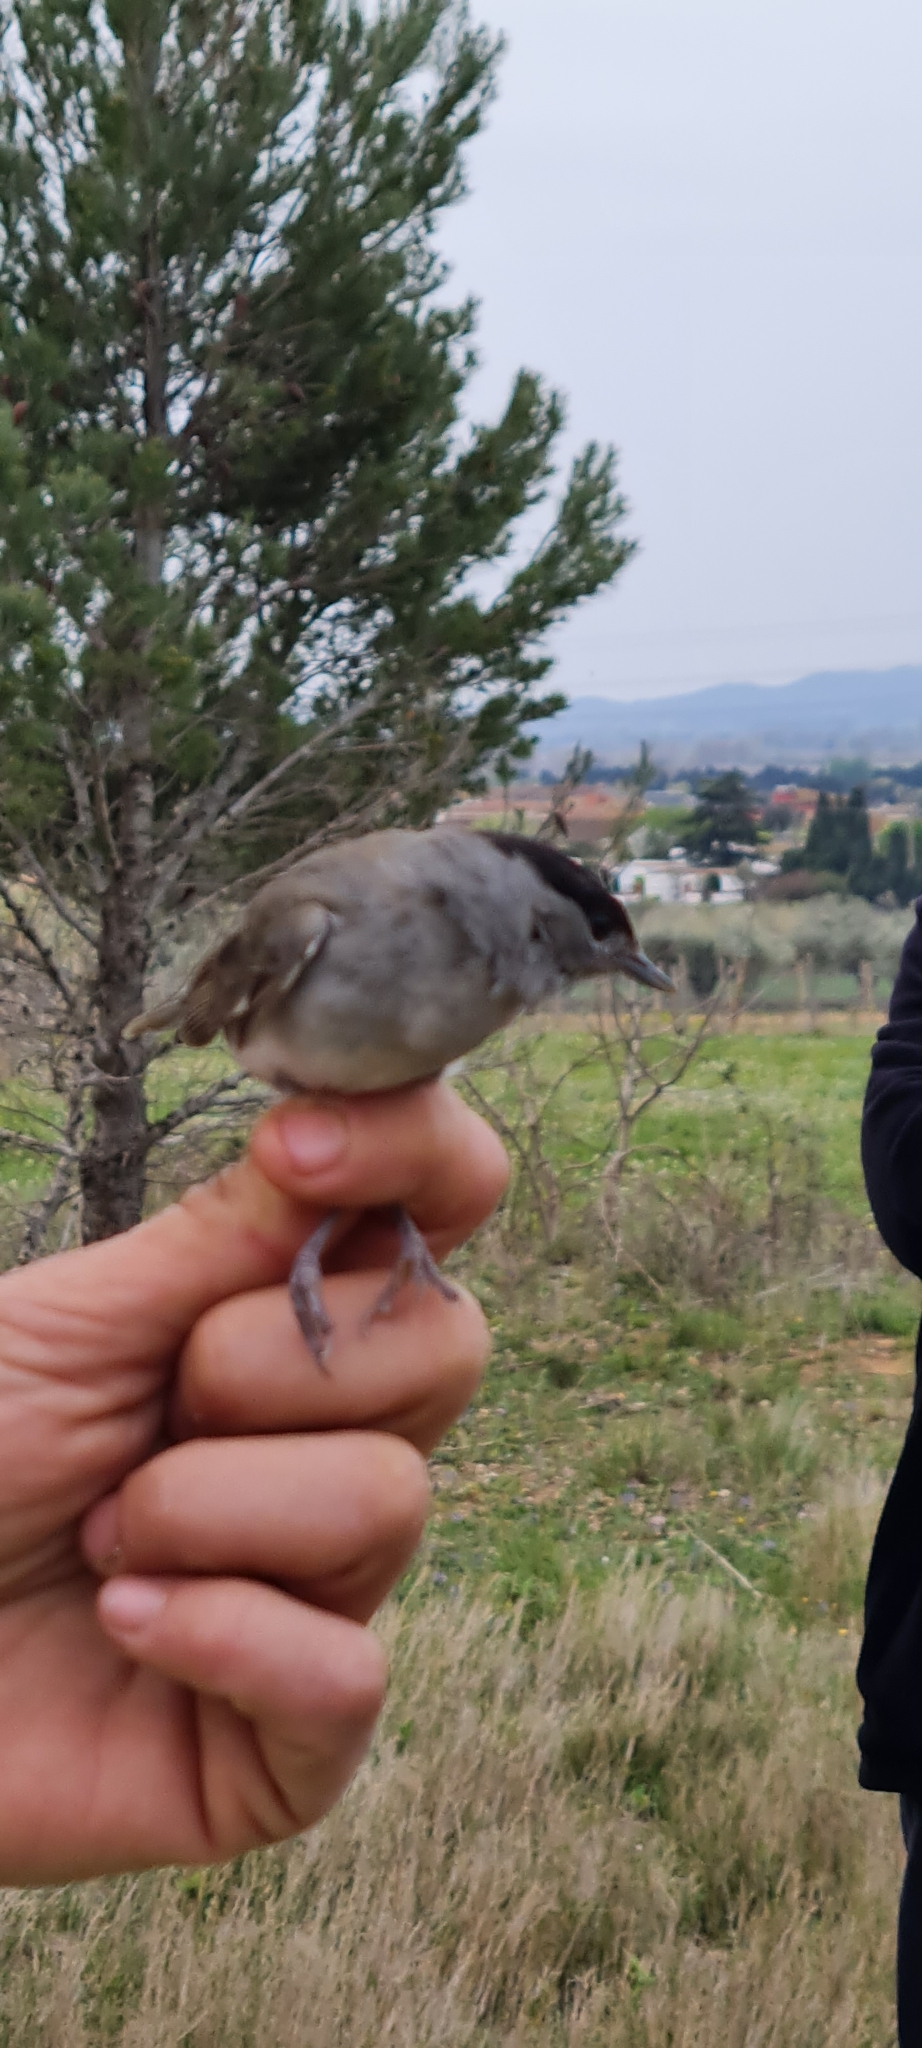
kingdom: Animalia
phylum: Chordata
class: Aves
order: Passeriformes
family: Sylviidae
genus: Sylvia
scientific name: Sylvia atricapilla
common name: Eurasian blackcap
